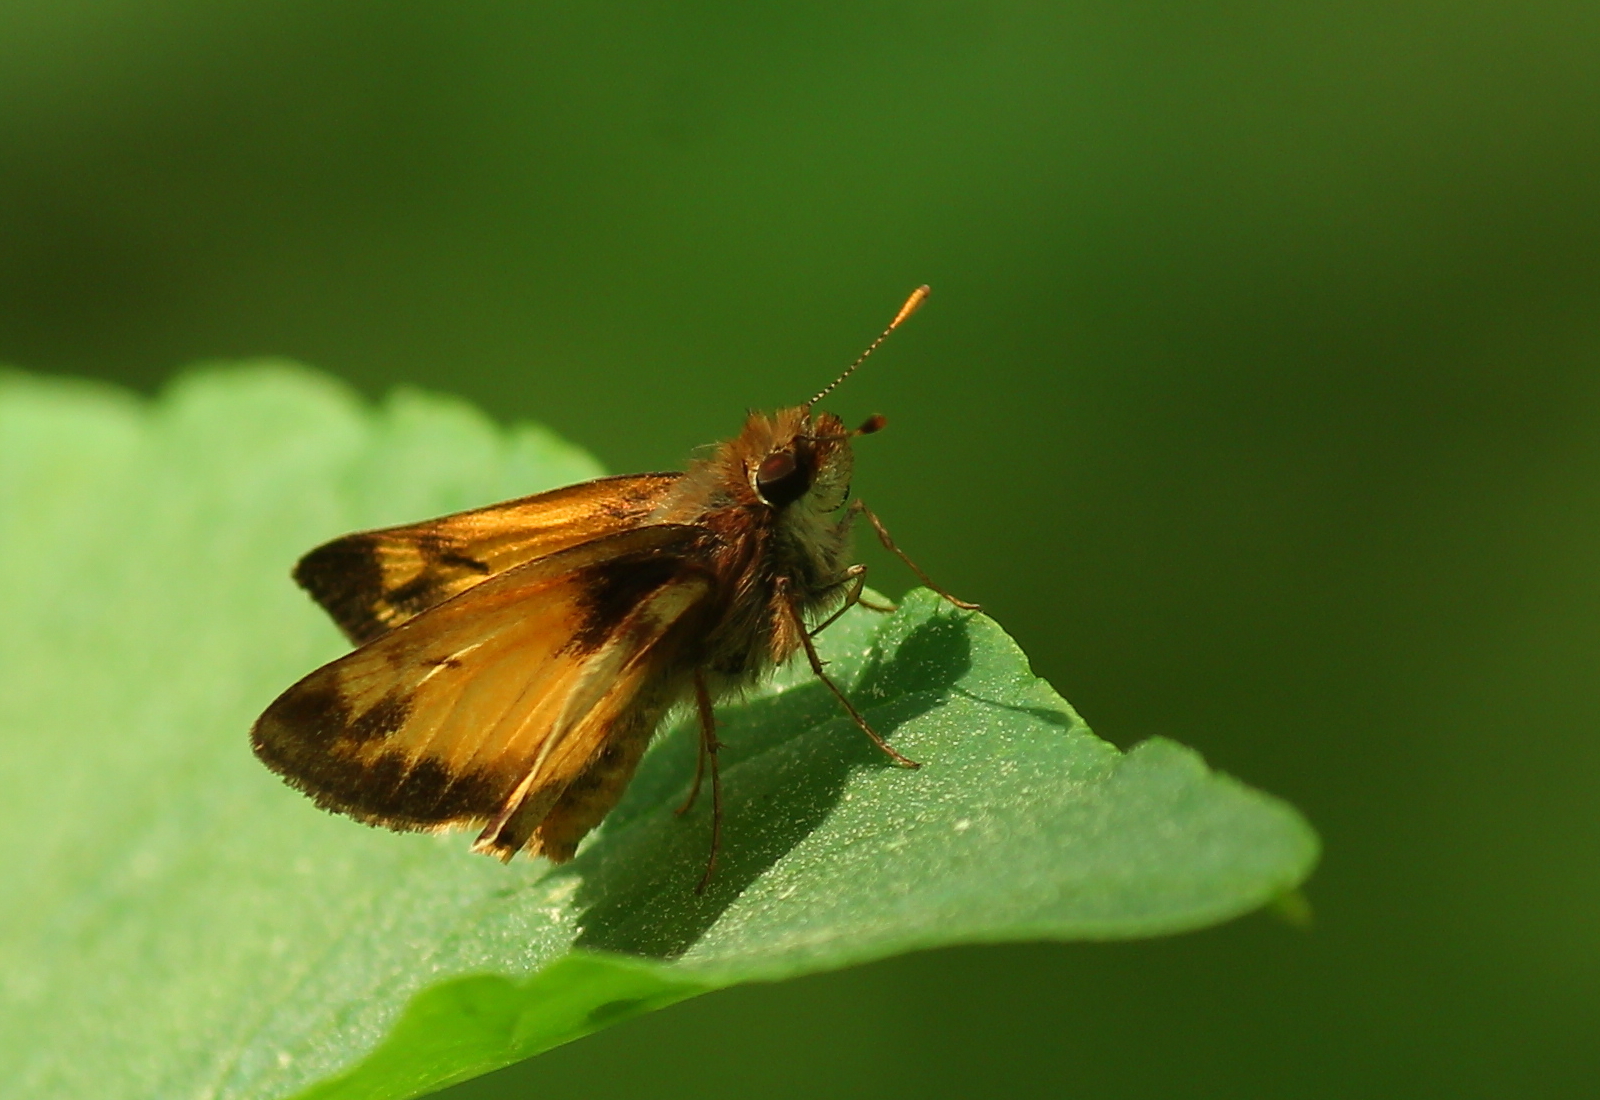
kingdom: Animalia
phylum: Arthropoda
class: Insecta
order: Lepidoptera
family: Hesperiidae
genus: Lon
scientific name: Lon zabulon
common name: Zabulon skipper
